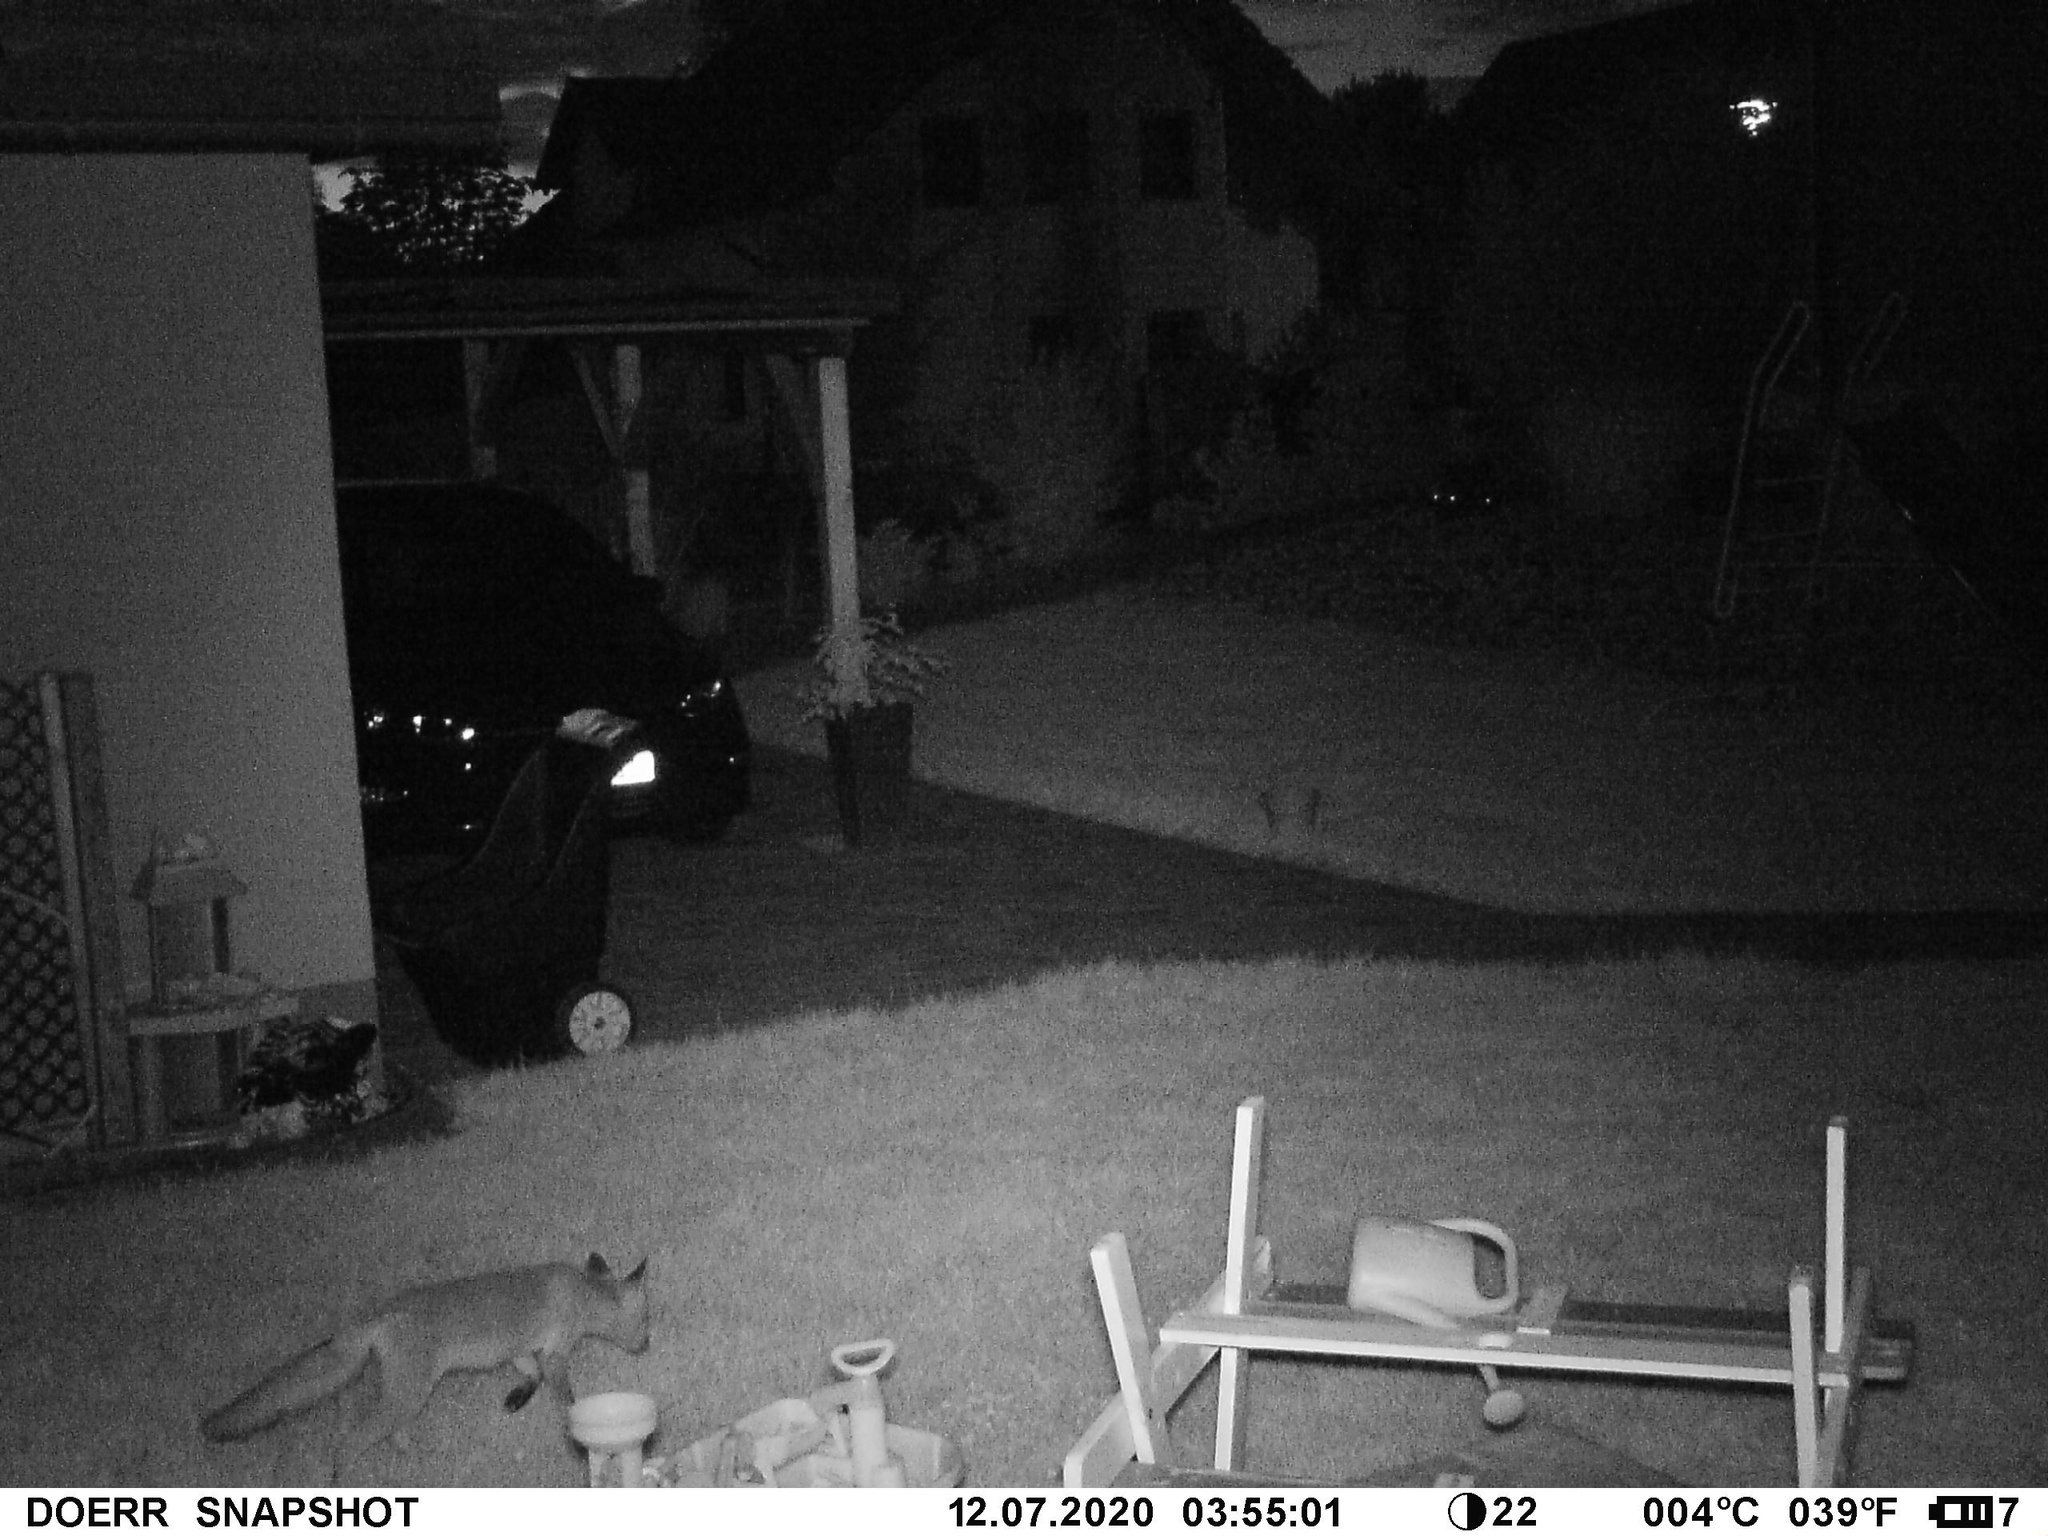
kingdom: Animalia
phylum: Chordata
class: Mammalia
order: Carnivora
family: Canidae
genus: Vulpes
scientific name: Vulpes vulpes
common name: Red fox
